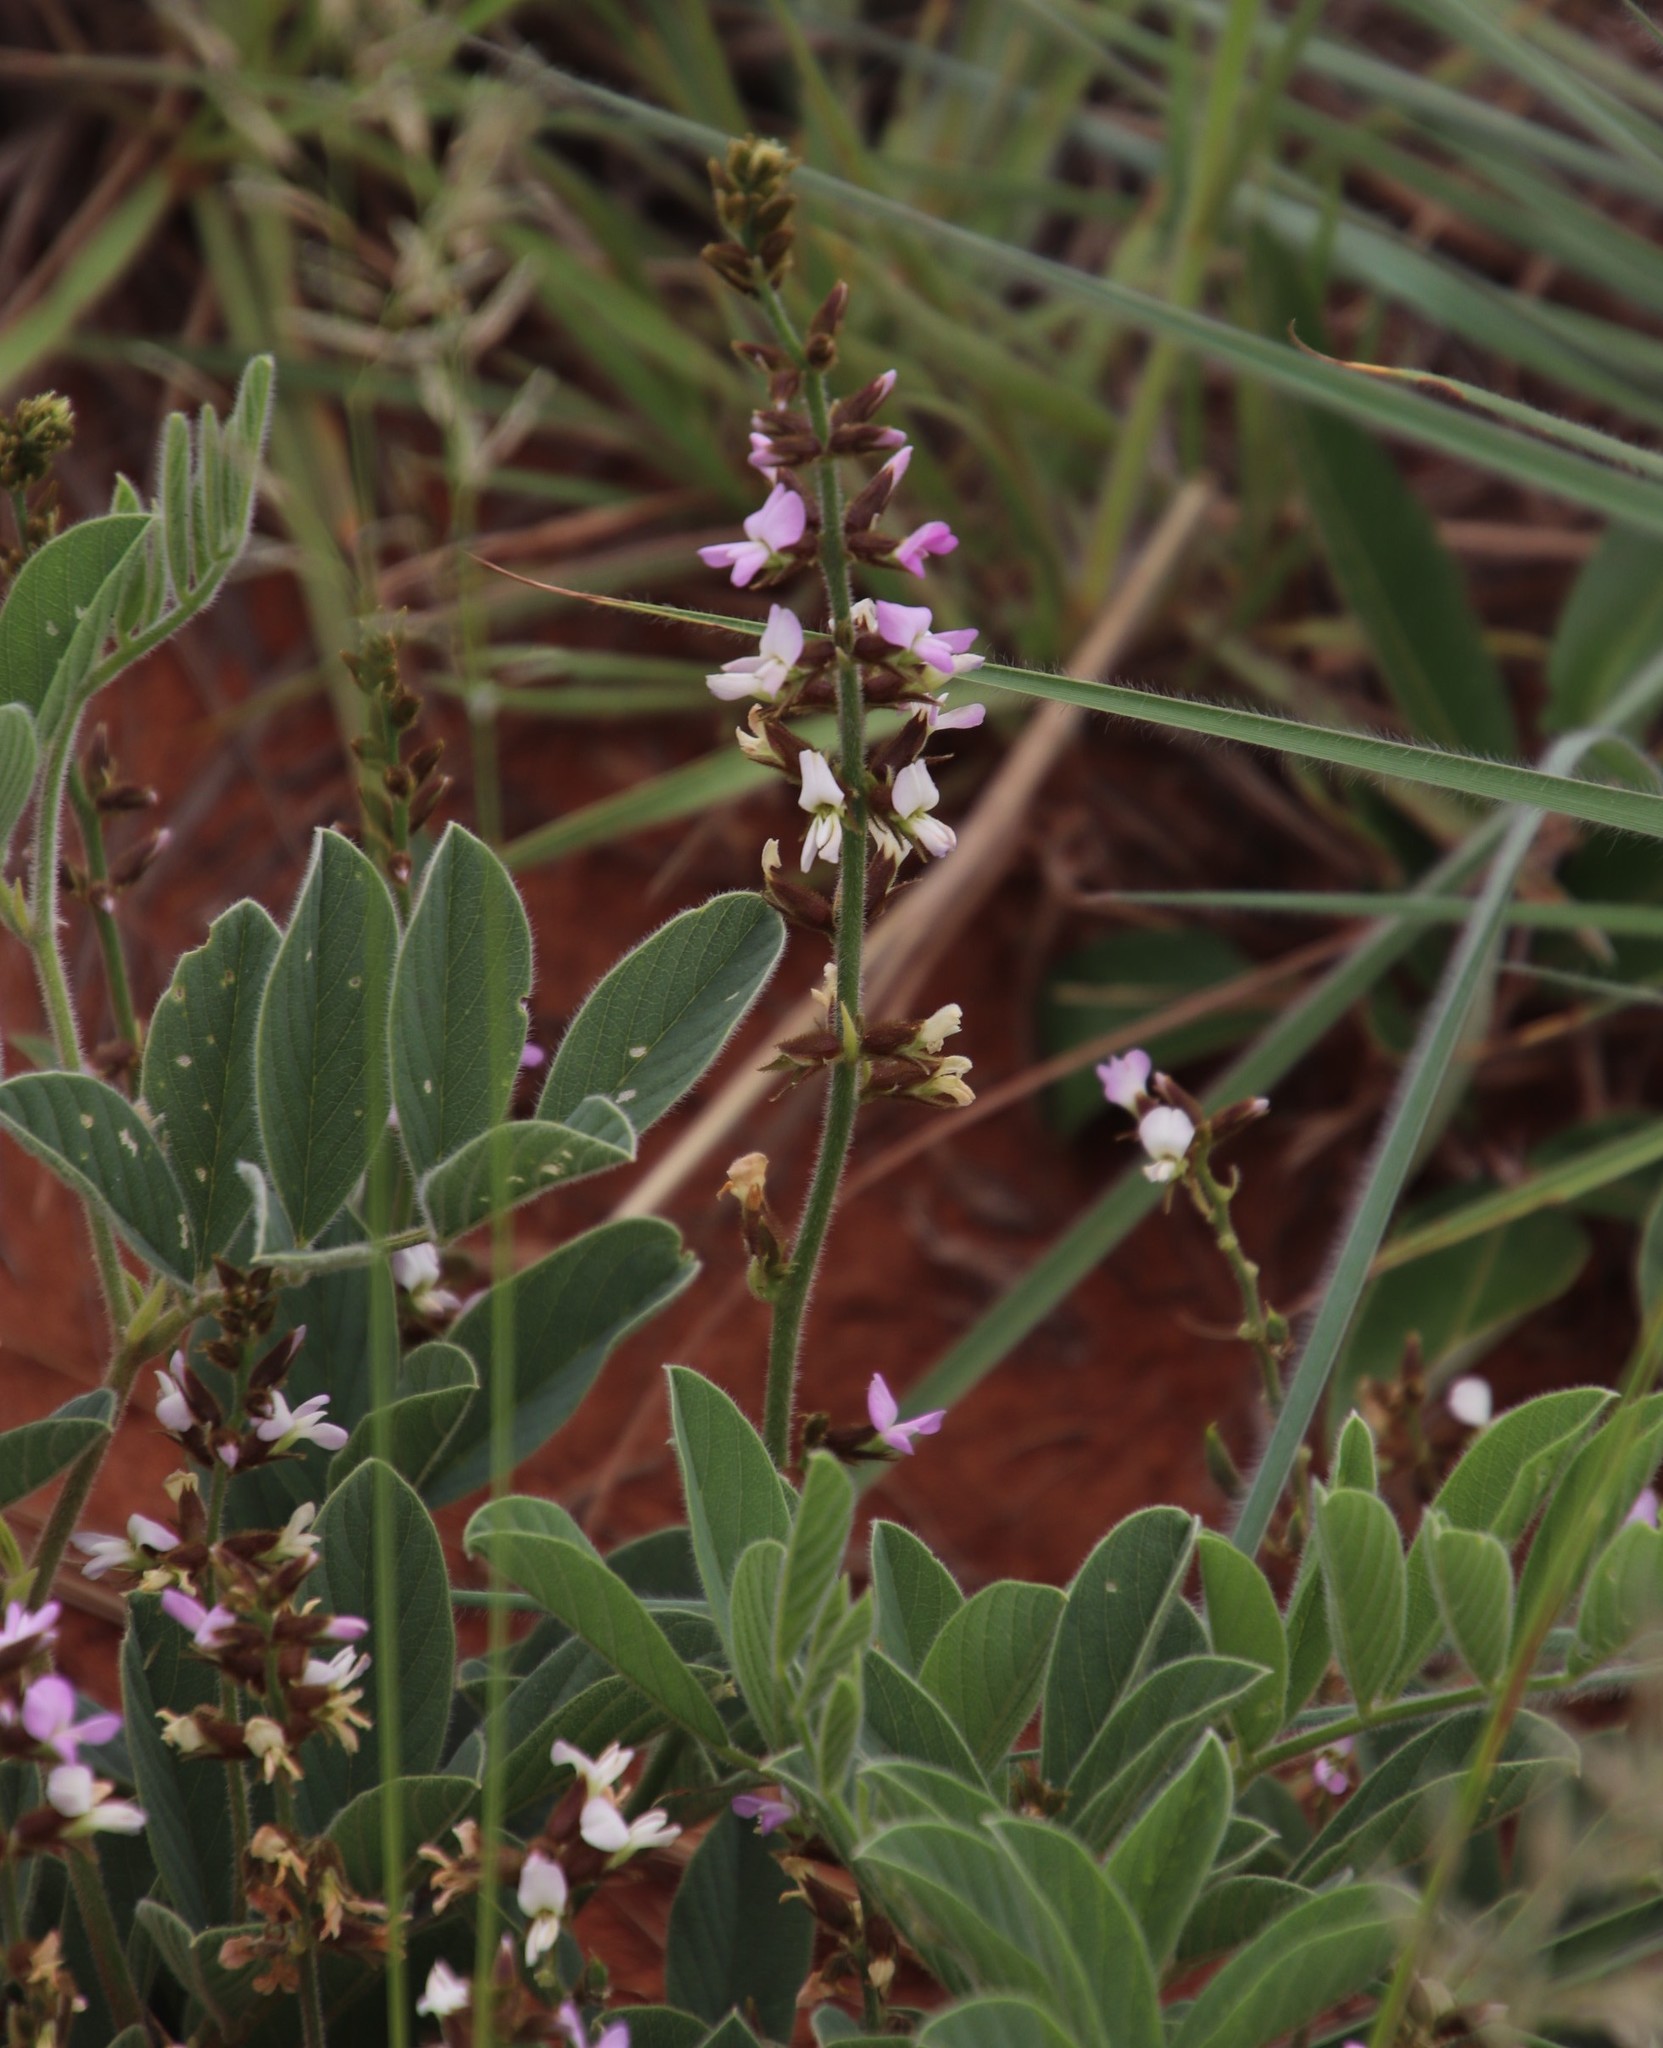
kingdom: Plantae
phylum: Tracheophyta
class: Magnoliopsida
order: Fabales
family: Fabaceae
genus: Ophrestia
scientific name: Ophrestia oblongifolia
